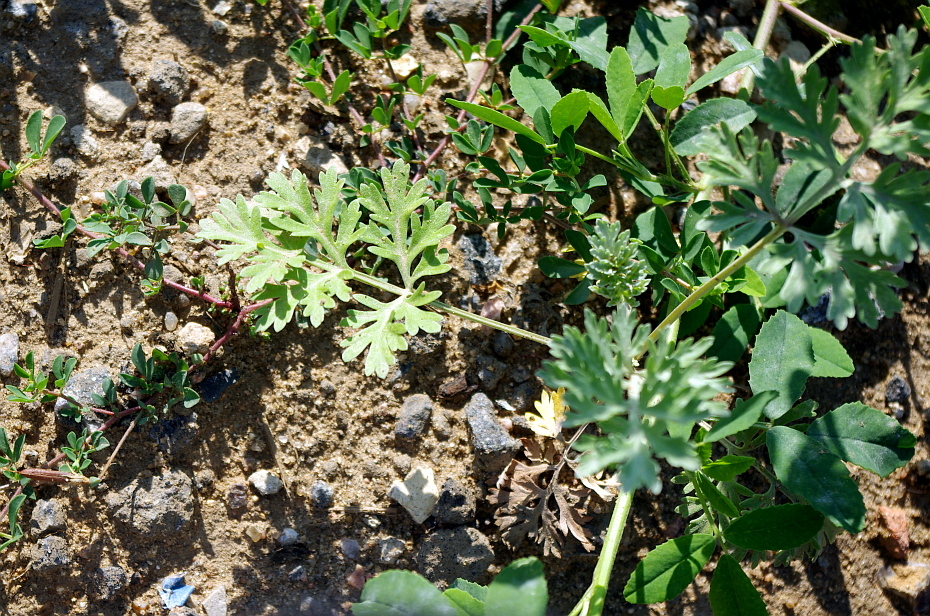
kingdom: Plantae
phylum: Tracheophyta
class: Magnoliopsida
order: Asterales
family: Asteraceae
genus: Artemisia
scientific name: Artemisia absinthium
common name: Wormwood
